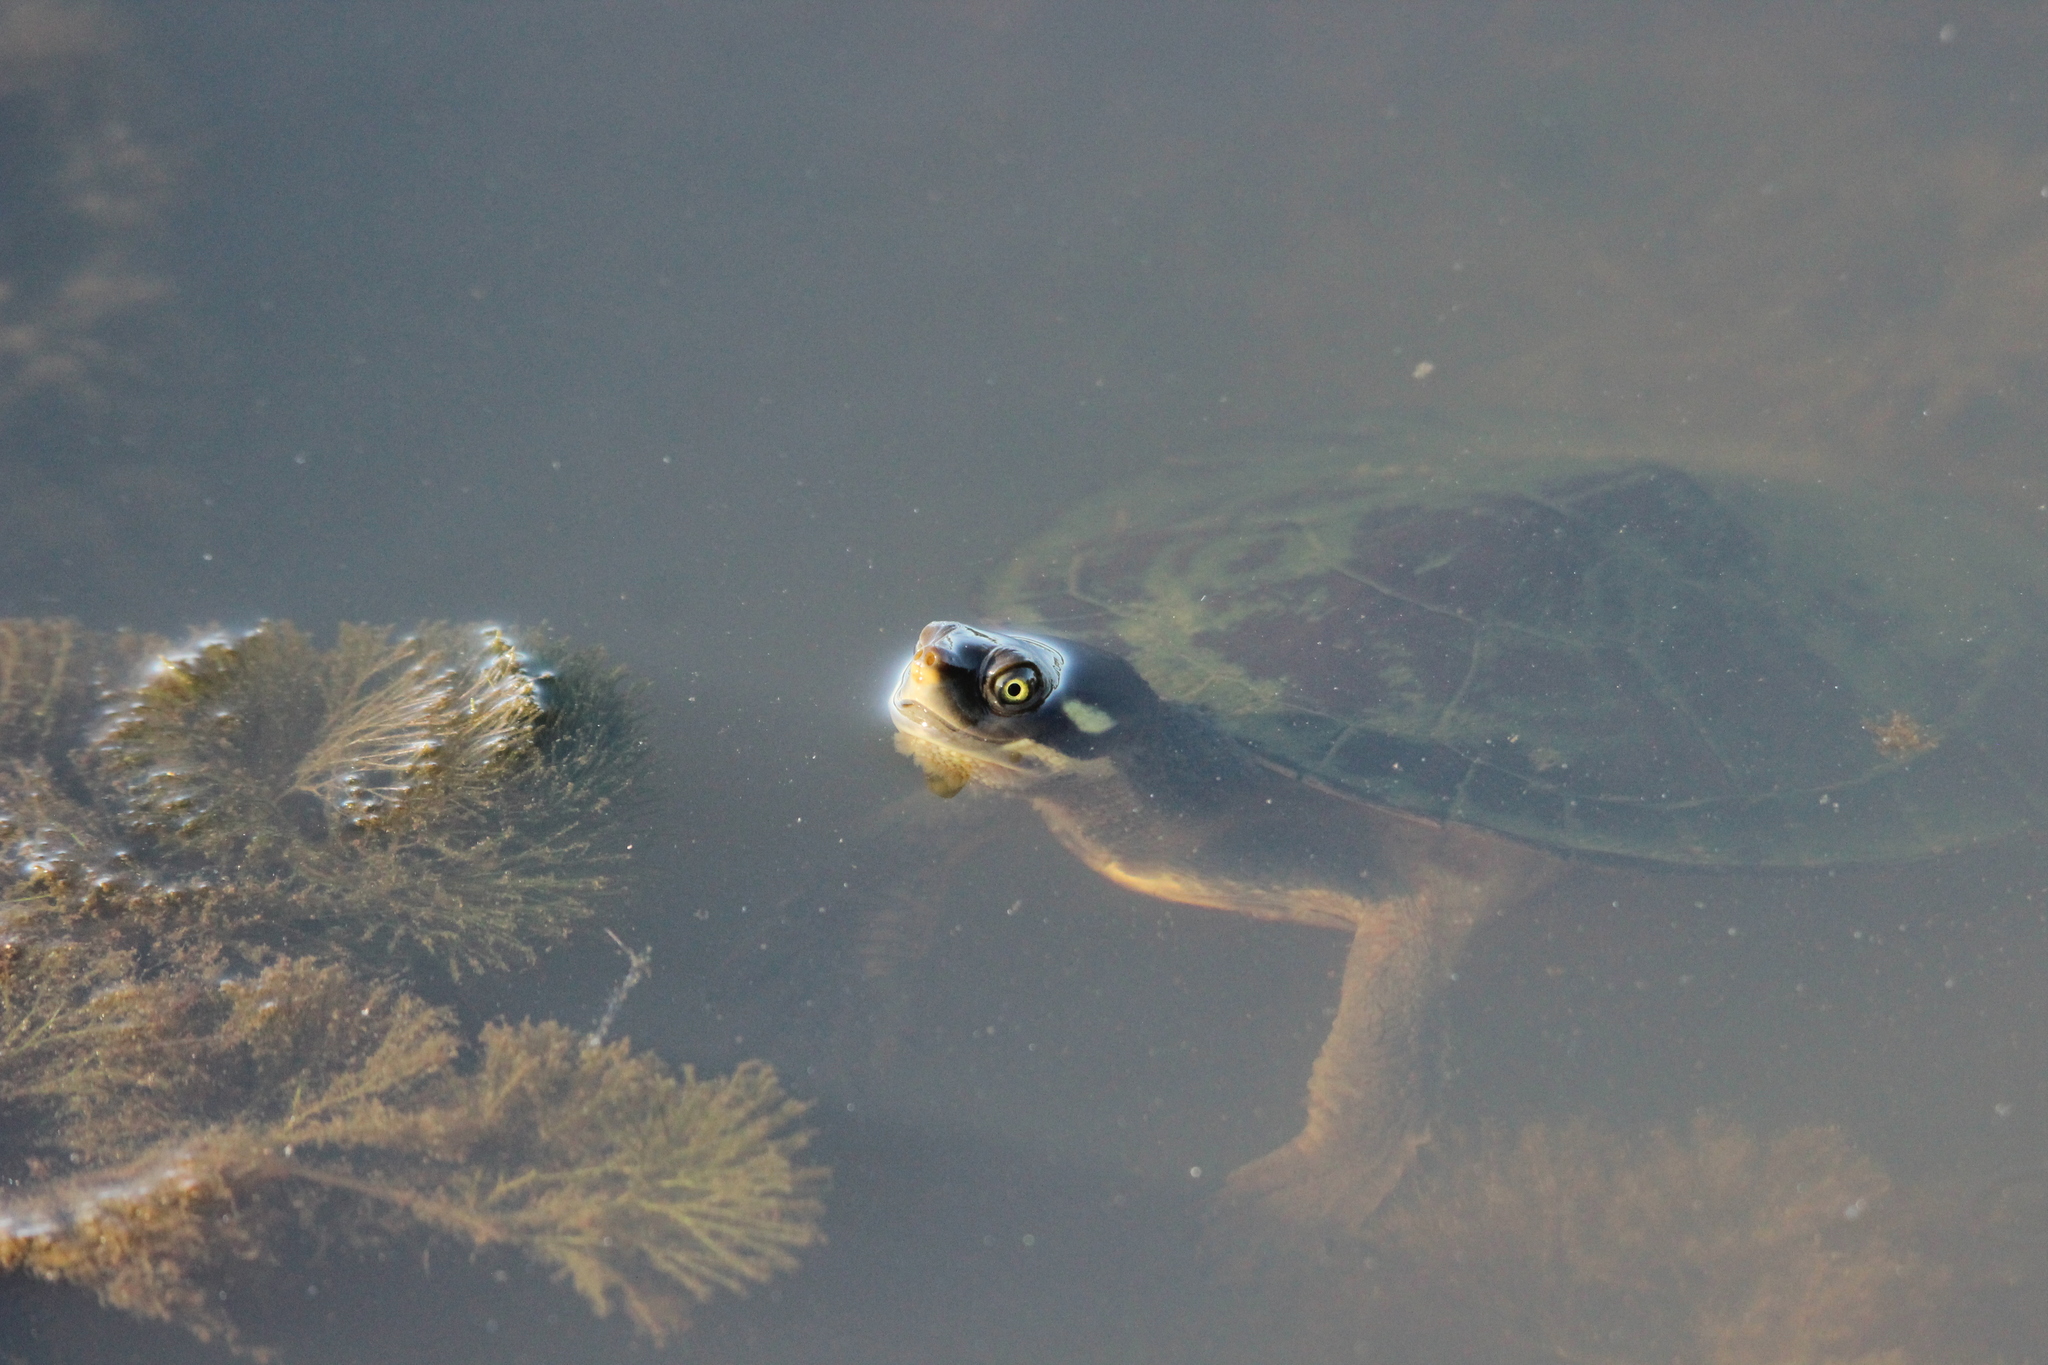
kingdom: Animalia
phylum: Chordata
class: Testudines
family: Chelidae
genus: Emydura
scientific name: Emydura macquarii
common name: Murray river turtle
